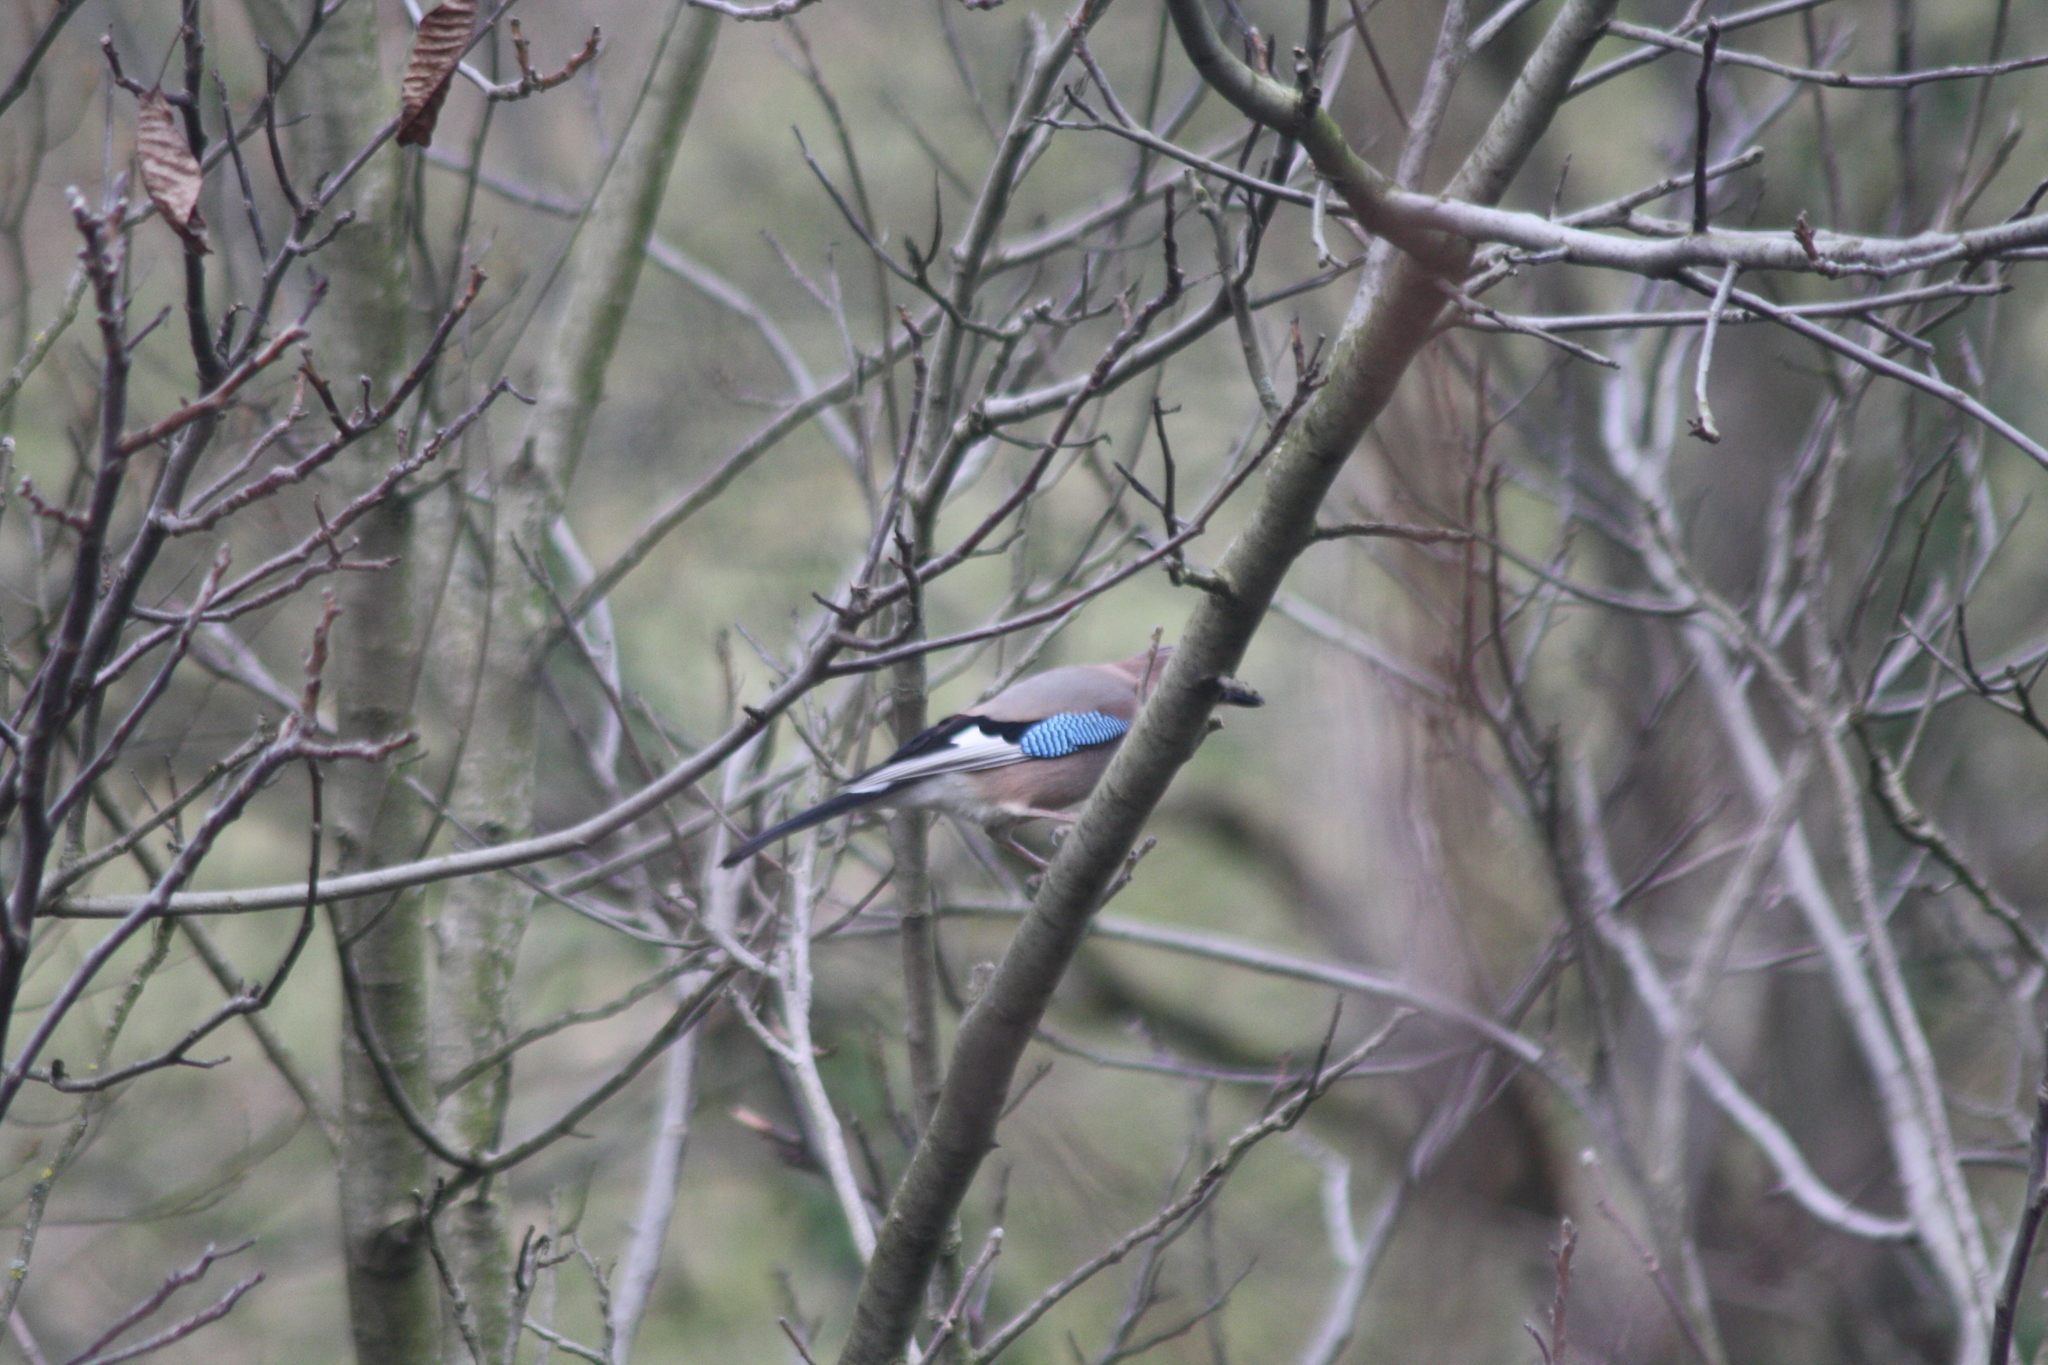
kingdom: Animalia
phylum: Chordata
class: Aves
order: Passeriformes
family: Corvidae
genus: Garrulus
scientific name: Garrulus glandarius
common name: Eurasian jay
